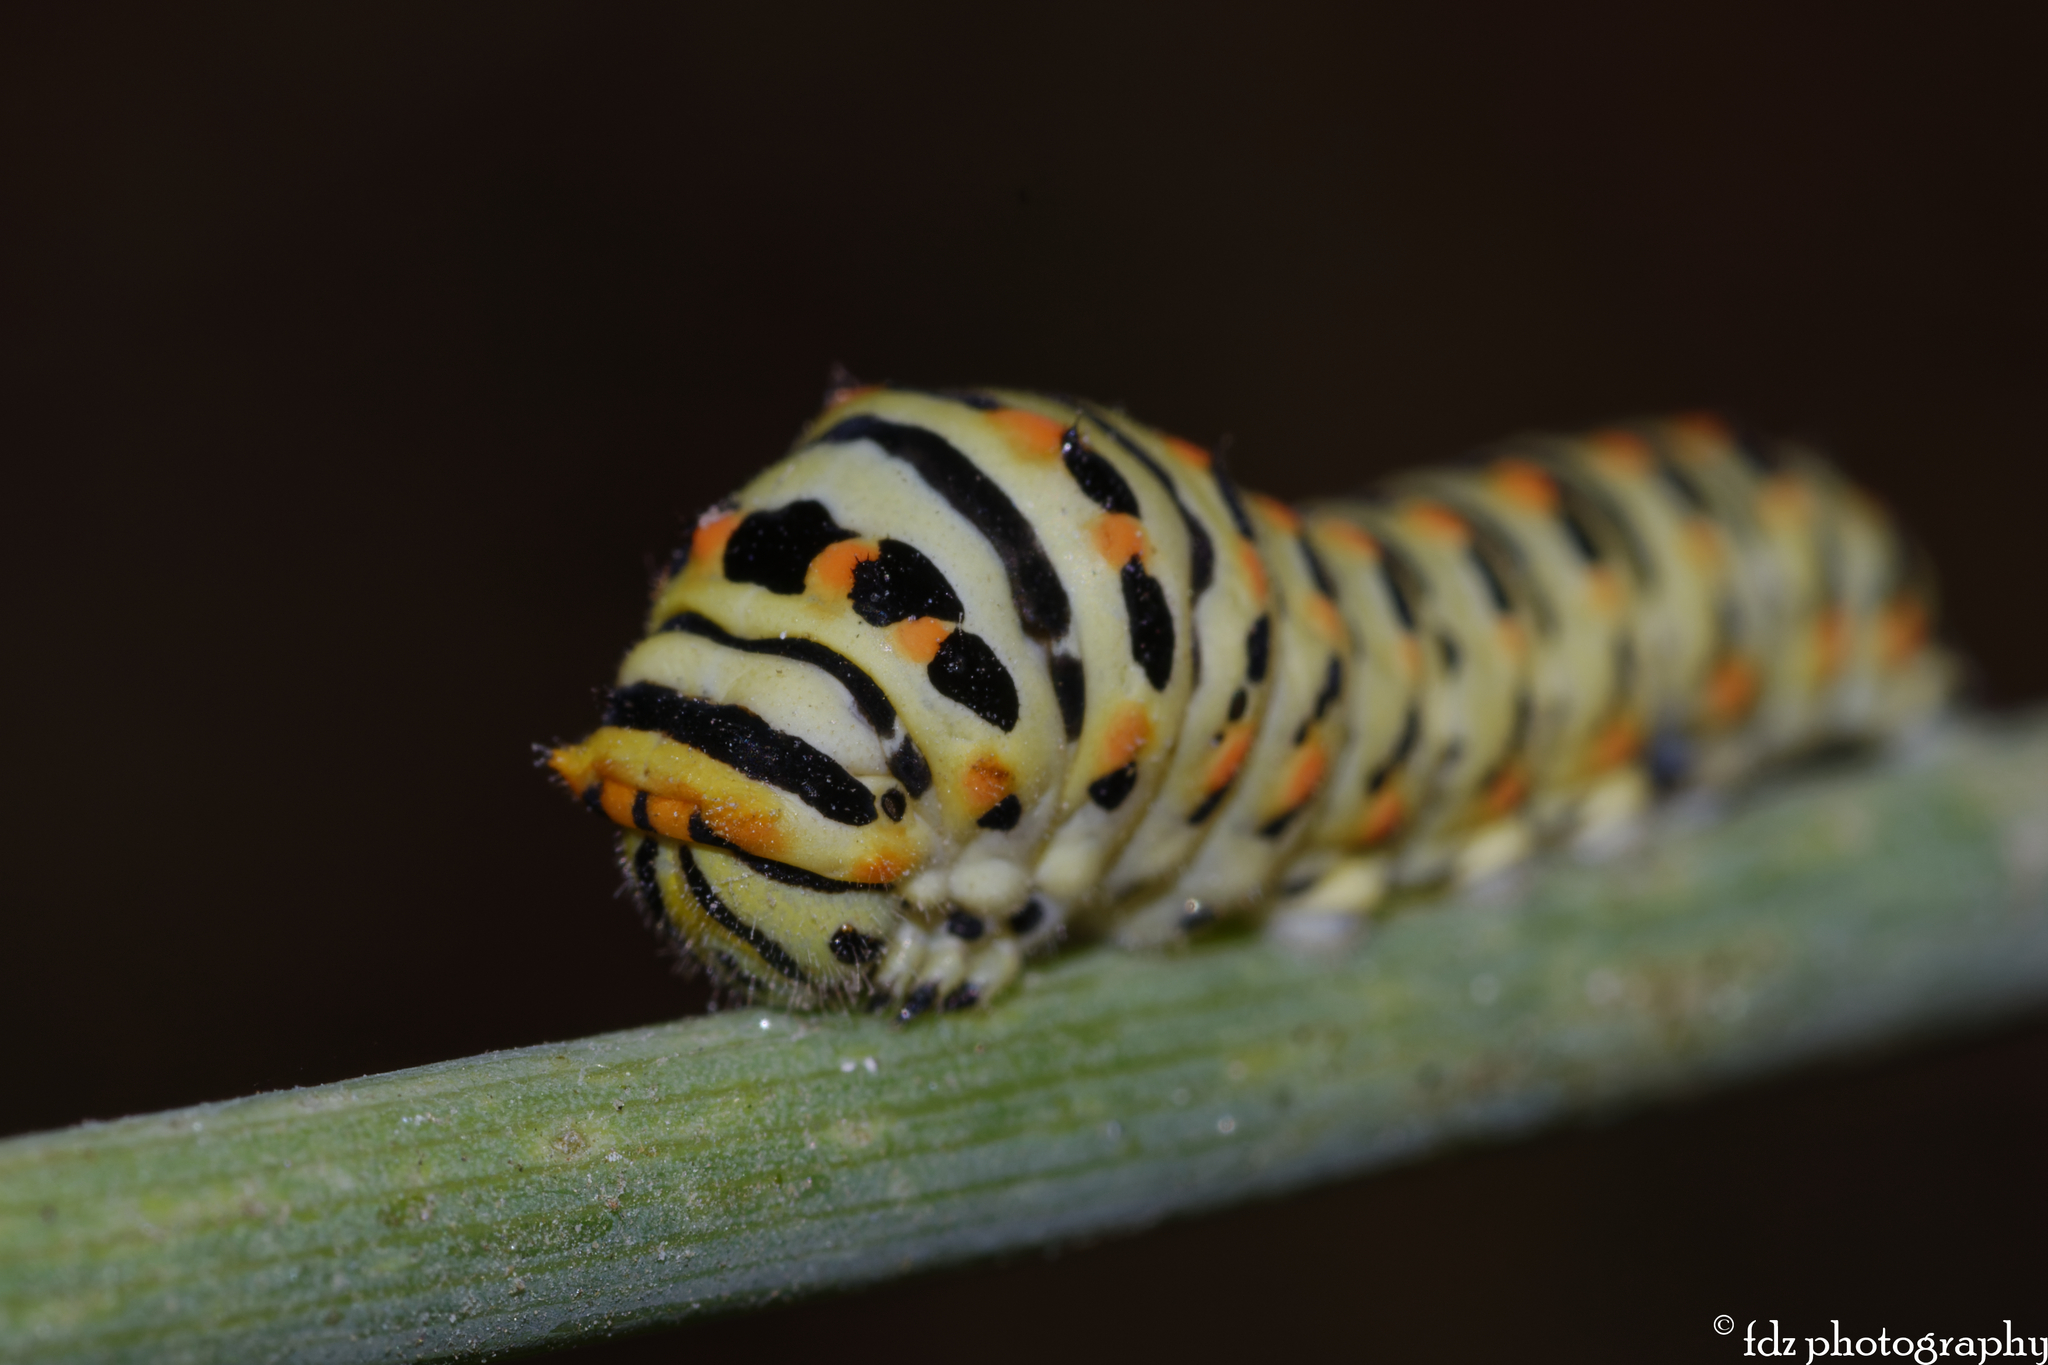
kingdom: Animalia
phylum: Arthropoda
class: Insecta
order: Lepidoptera
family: Papilionidae
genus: Papilio
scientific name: Papilio machaon
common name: Swallowtail
